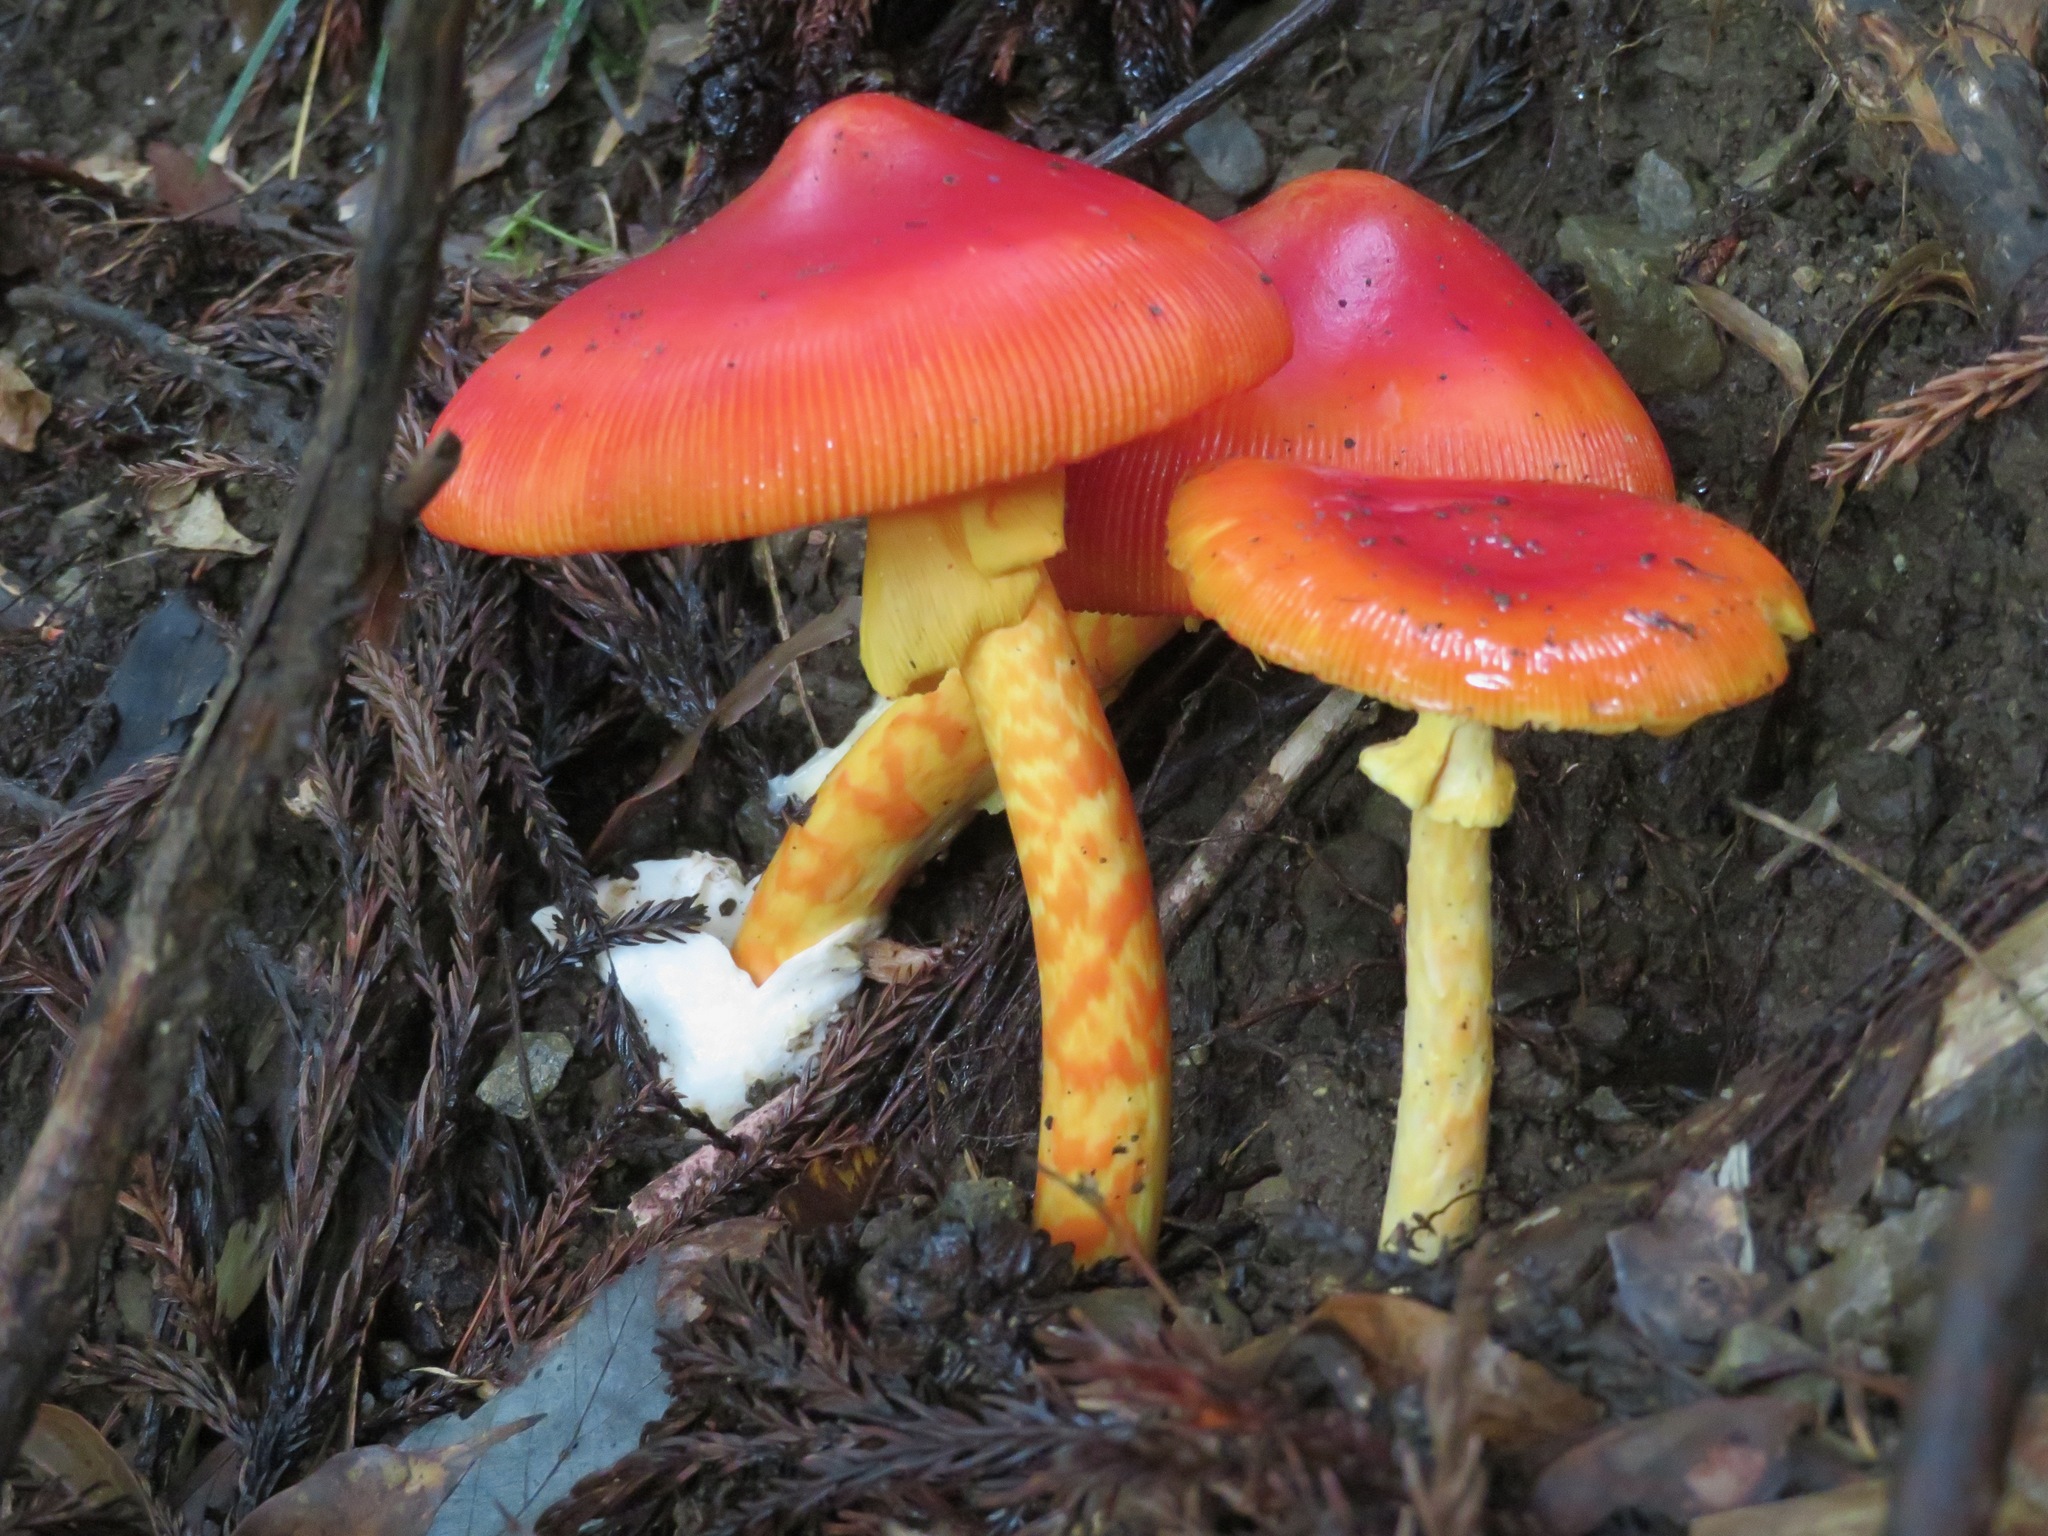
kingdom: Fungi
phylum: Basidiomycota
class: Agaricomycetes
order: Agaricales
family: Amanitaceae
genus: Amanita
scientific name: Amanita caesareoides
